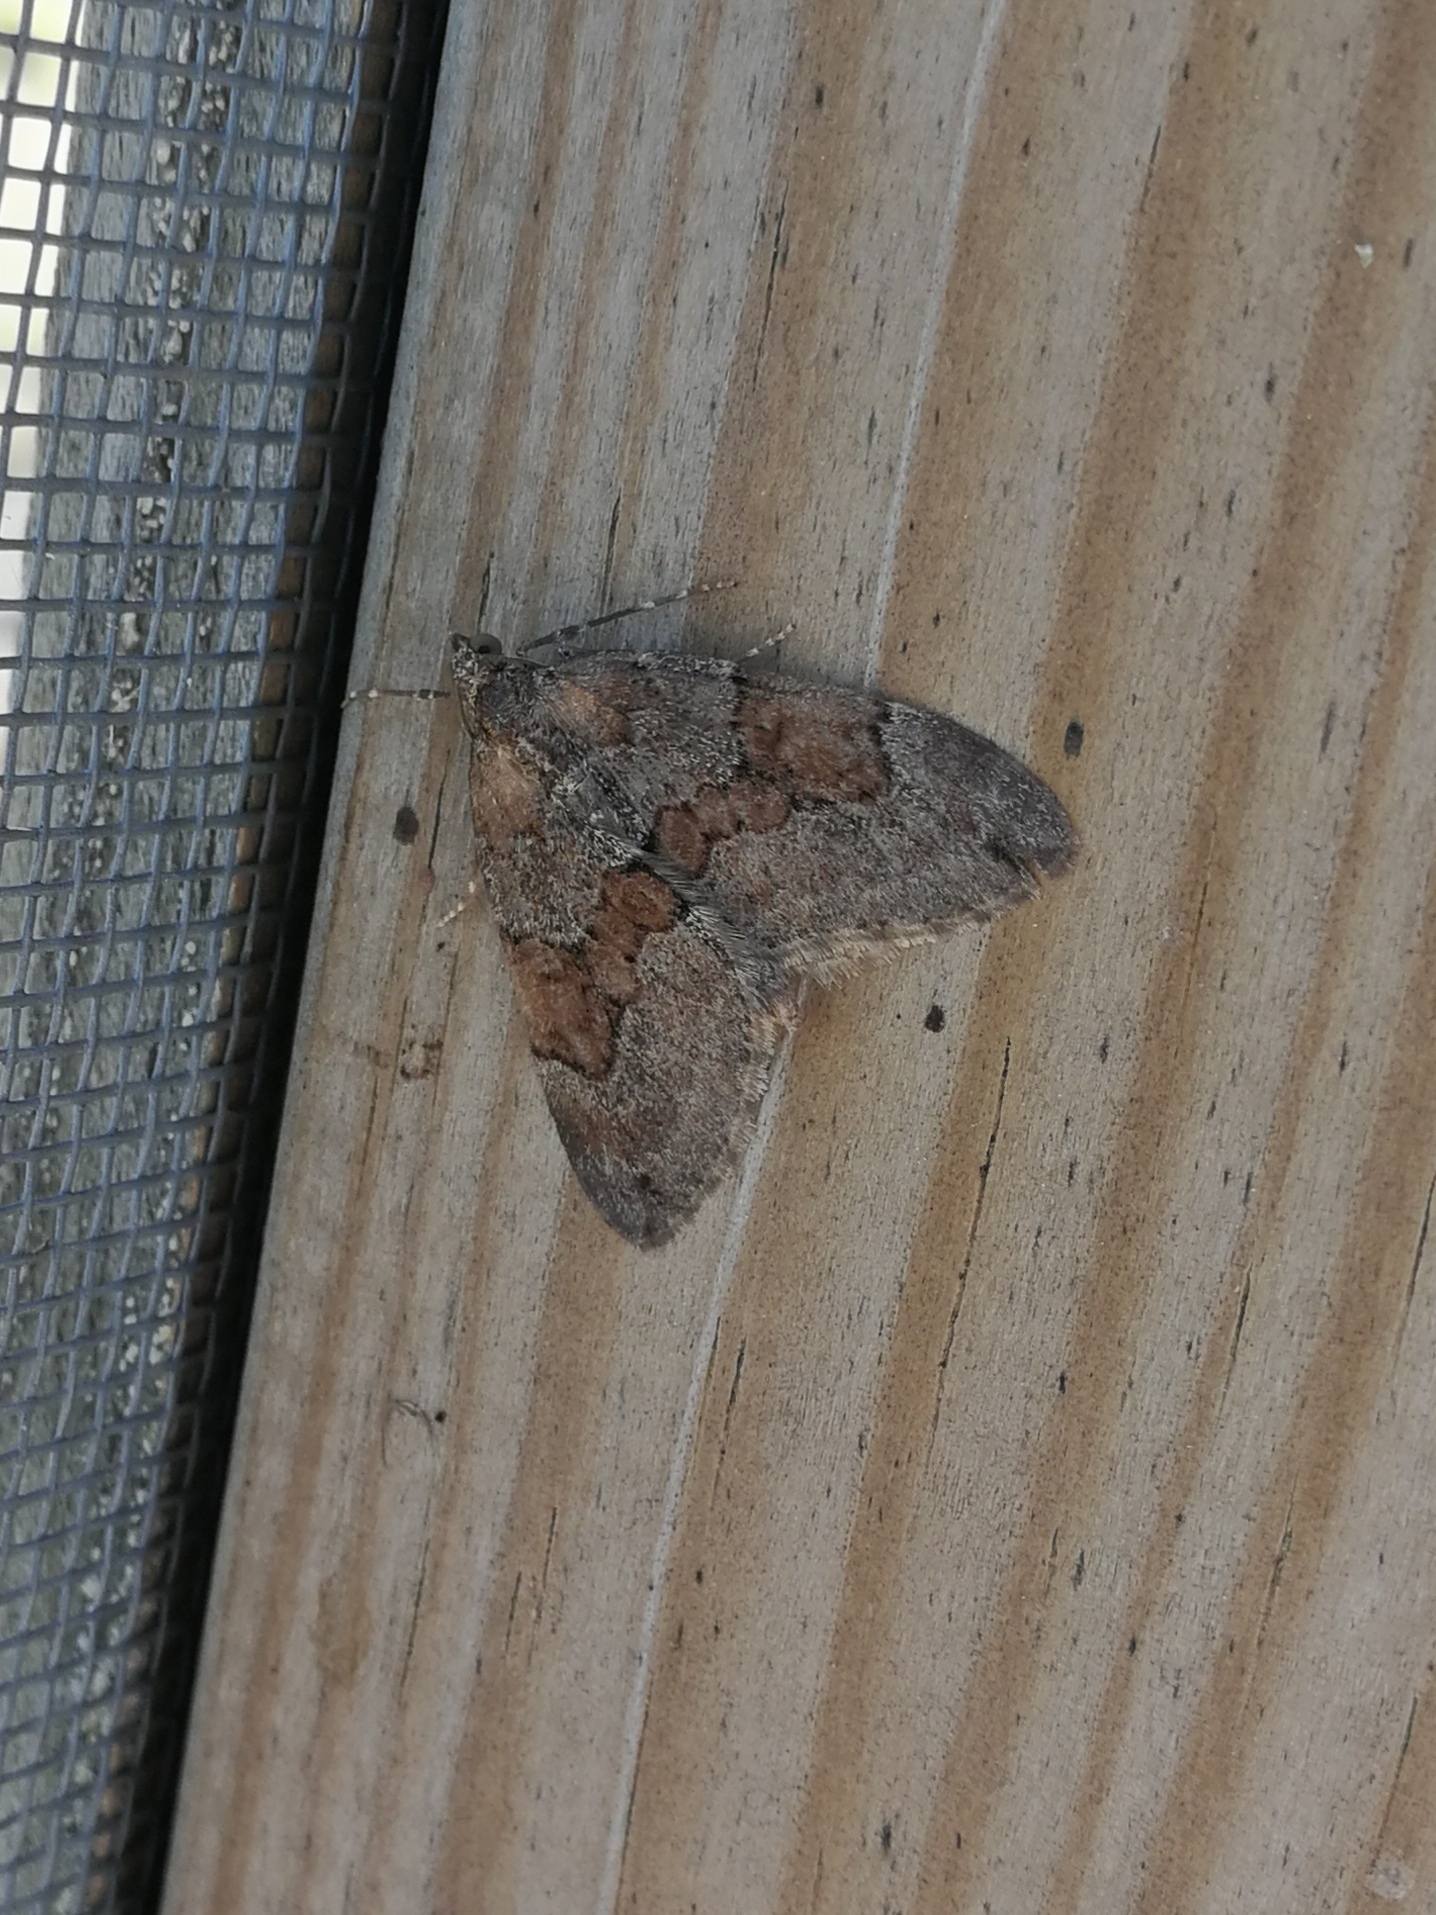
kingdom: Animalia
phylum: Arthropoda
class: Insecta
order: Lepidoptera
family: Geometridae
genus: Thera
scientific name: Thera obeliscata
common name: Grey pine carpet
